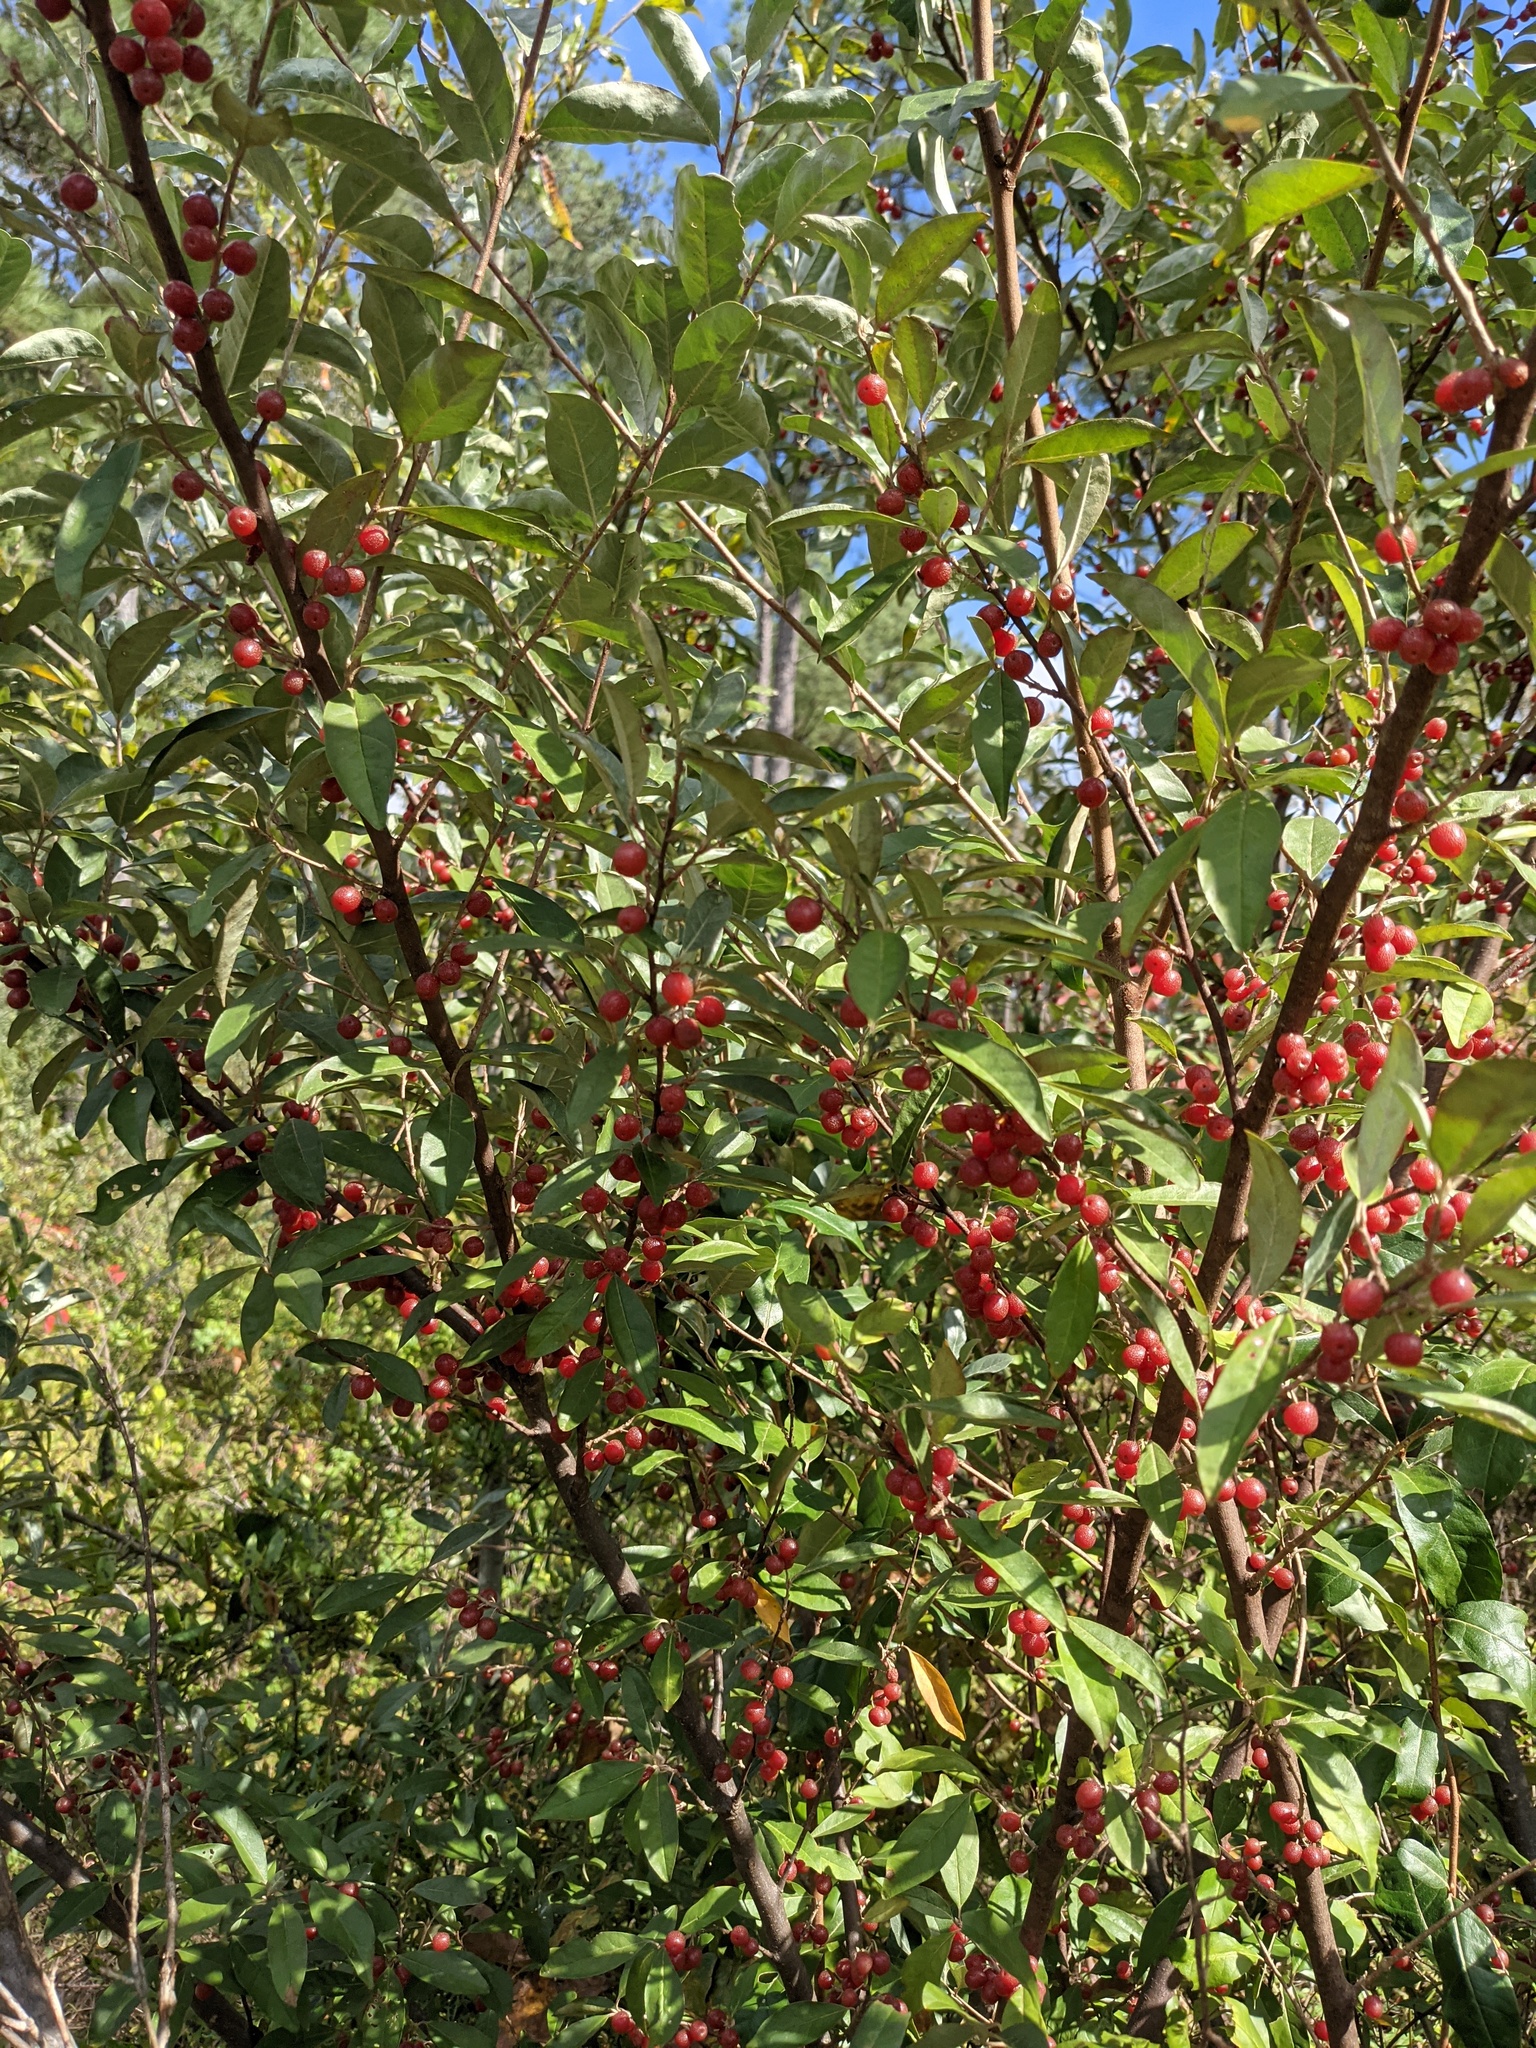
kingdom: Plantae
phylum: Tracheophyta
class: Magnoliopsida
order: Rosales
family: Elaeagnaceae
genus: Elaeagnus
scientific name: Elaeagnus umbellata
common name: Autumn olive
